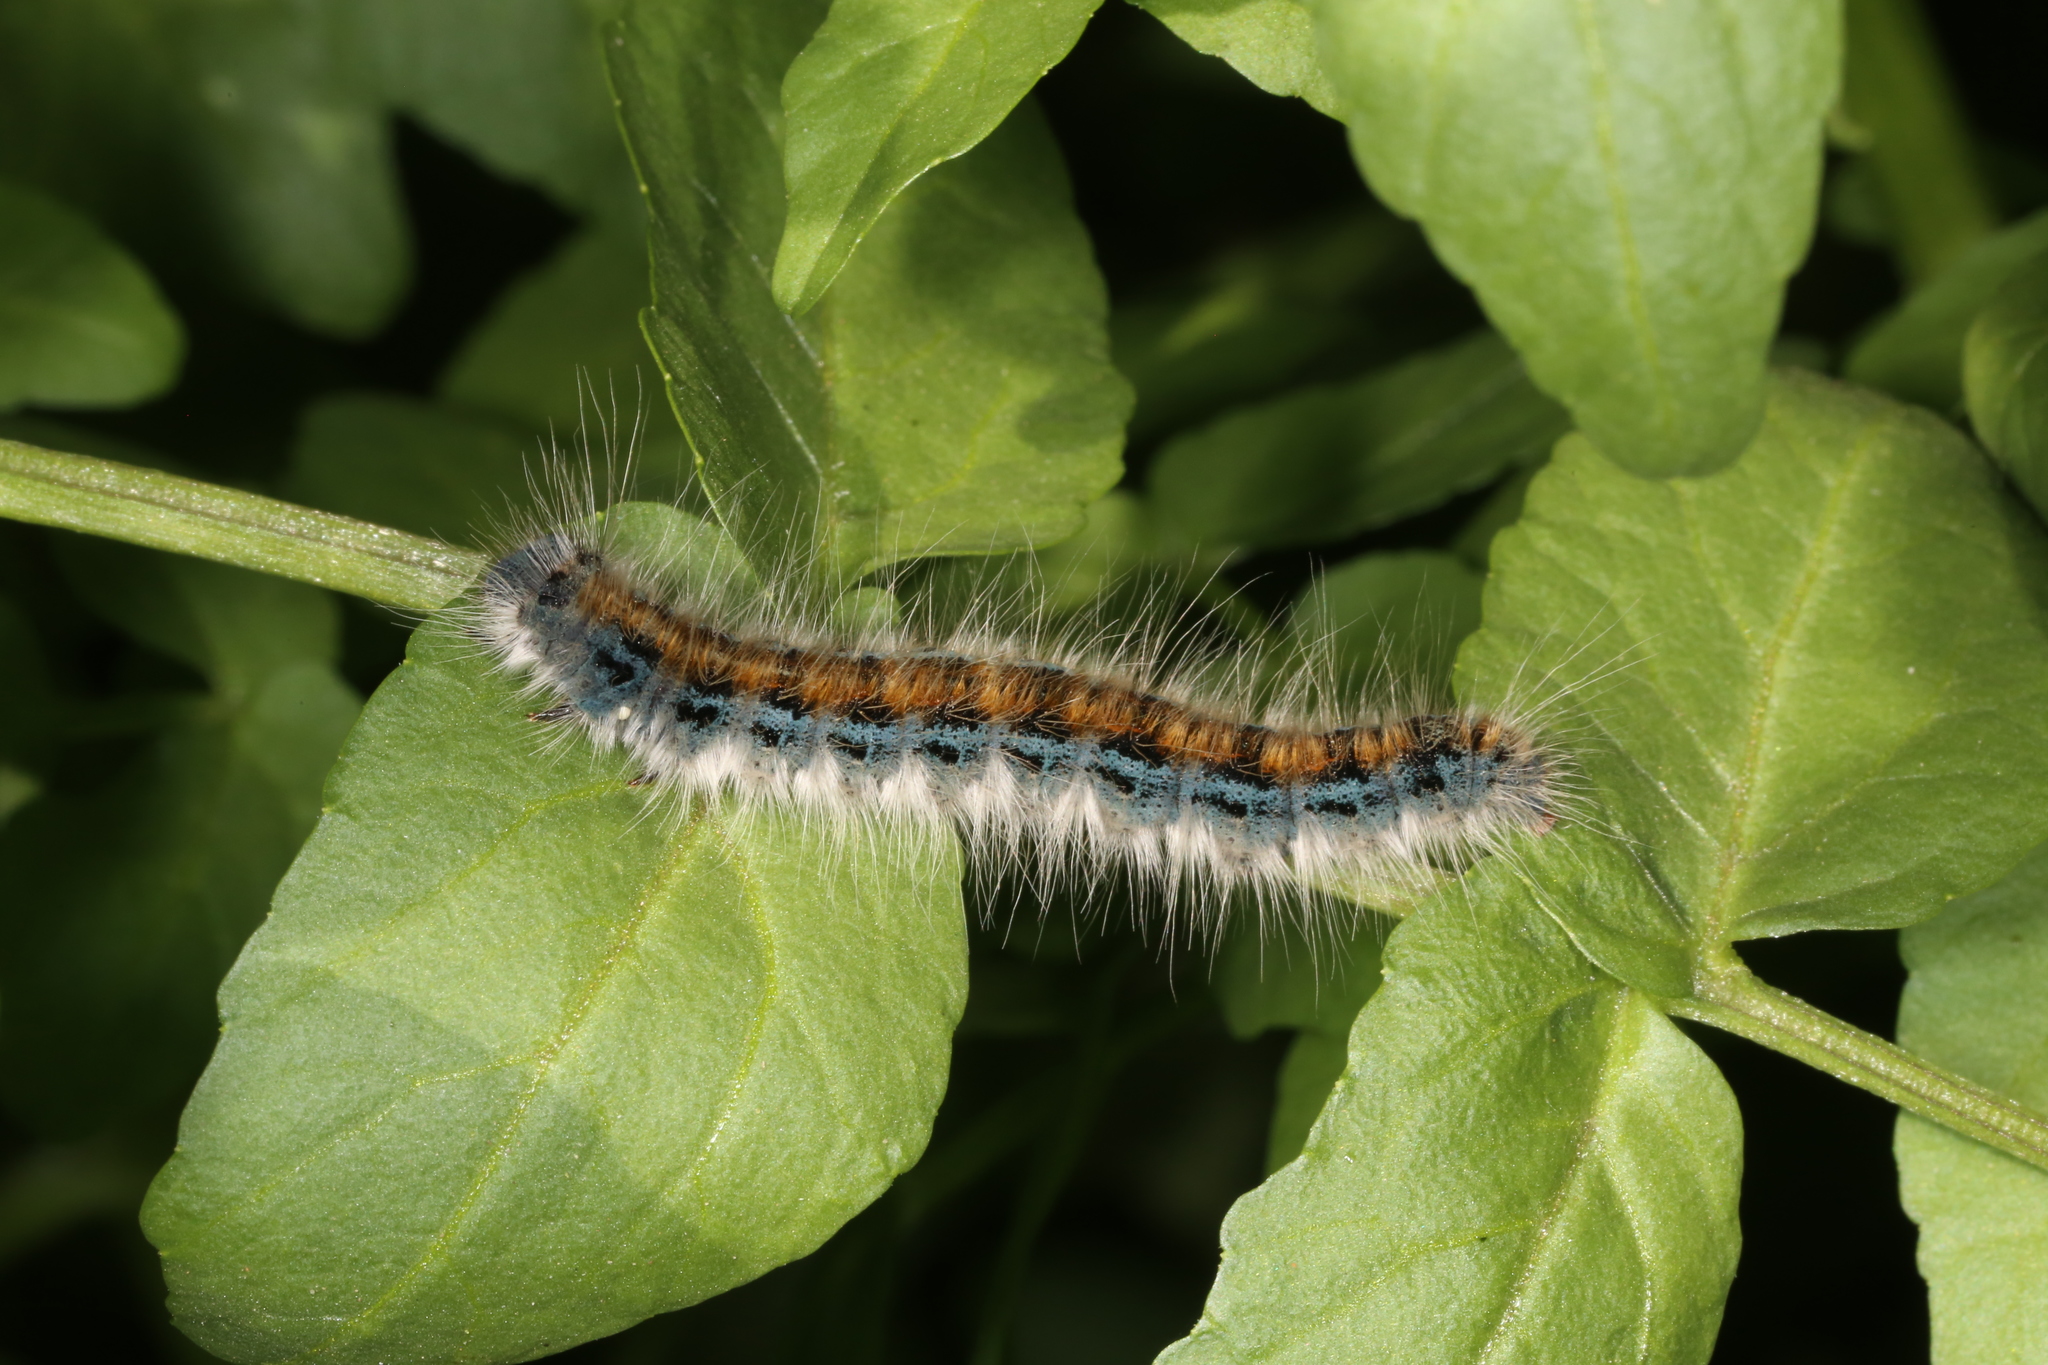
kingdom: Animalia
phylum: Arthropoda
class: Insecta
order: Lepidoptera
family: Lasiocampidae
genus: Malacosoma
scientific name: Malacosoma incurva
